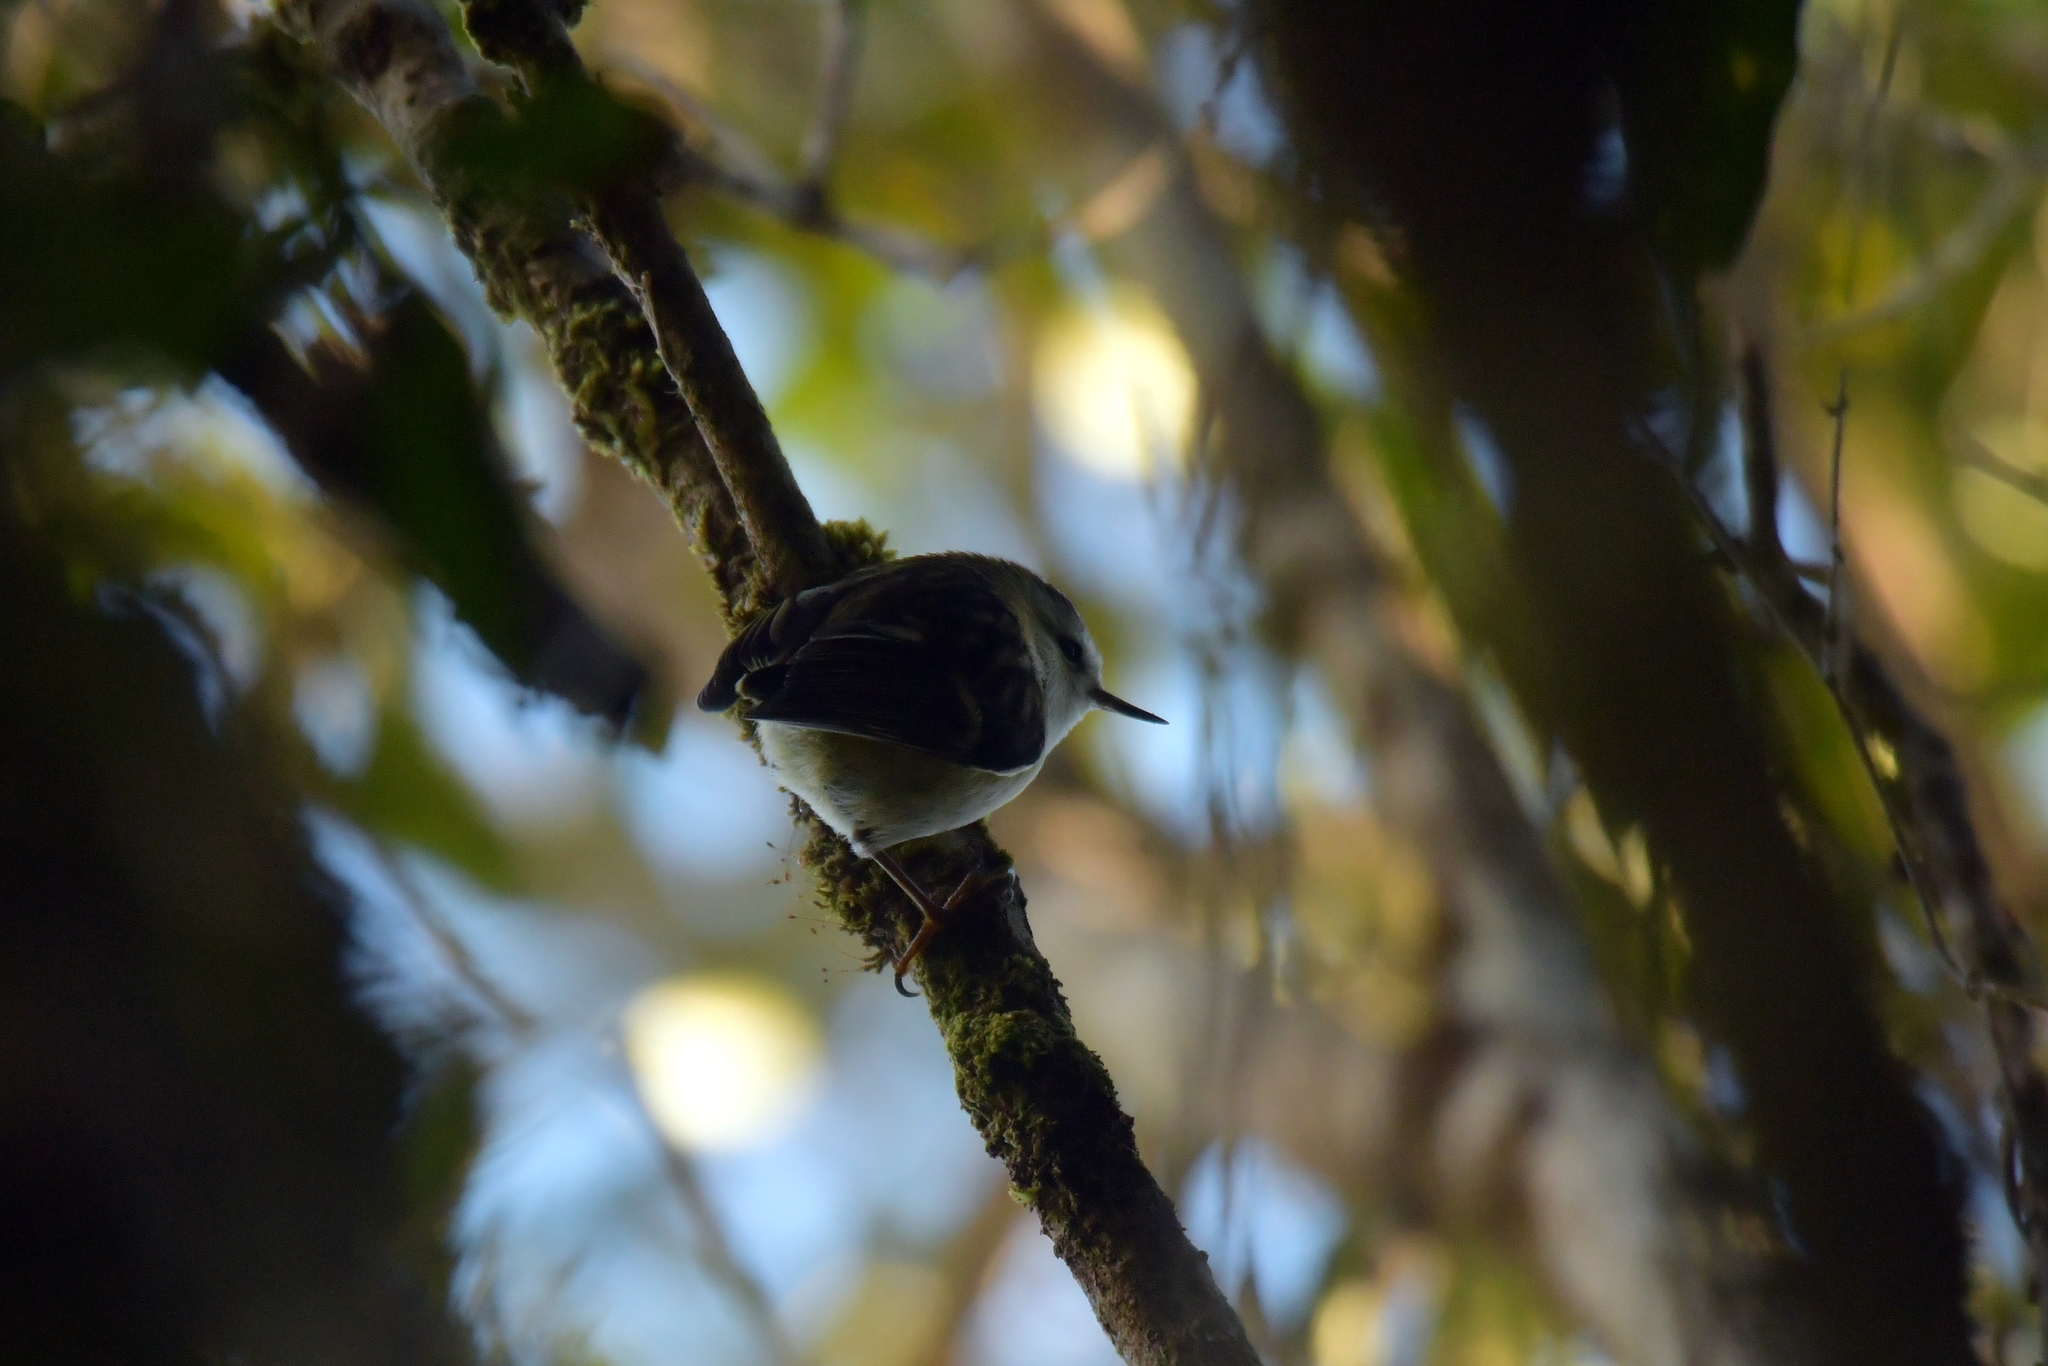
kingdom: Animalia
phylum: Chordata
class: Aves
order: Passeriformes
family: Acanthisittidae
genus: Acanthisitta
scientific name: Acanthisitta chloris
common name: Rifleman
